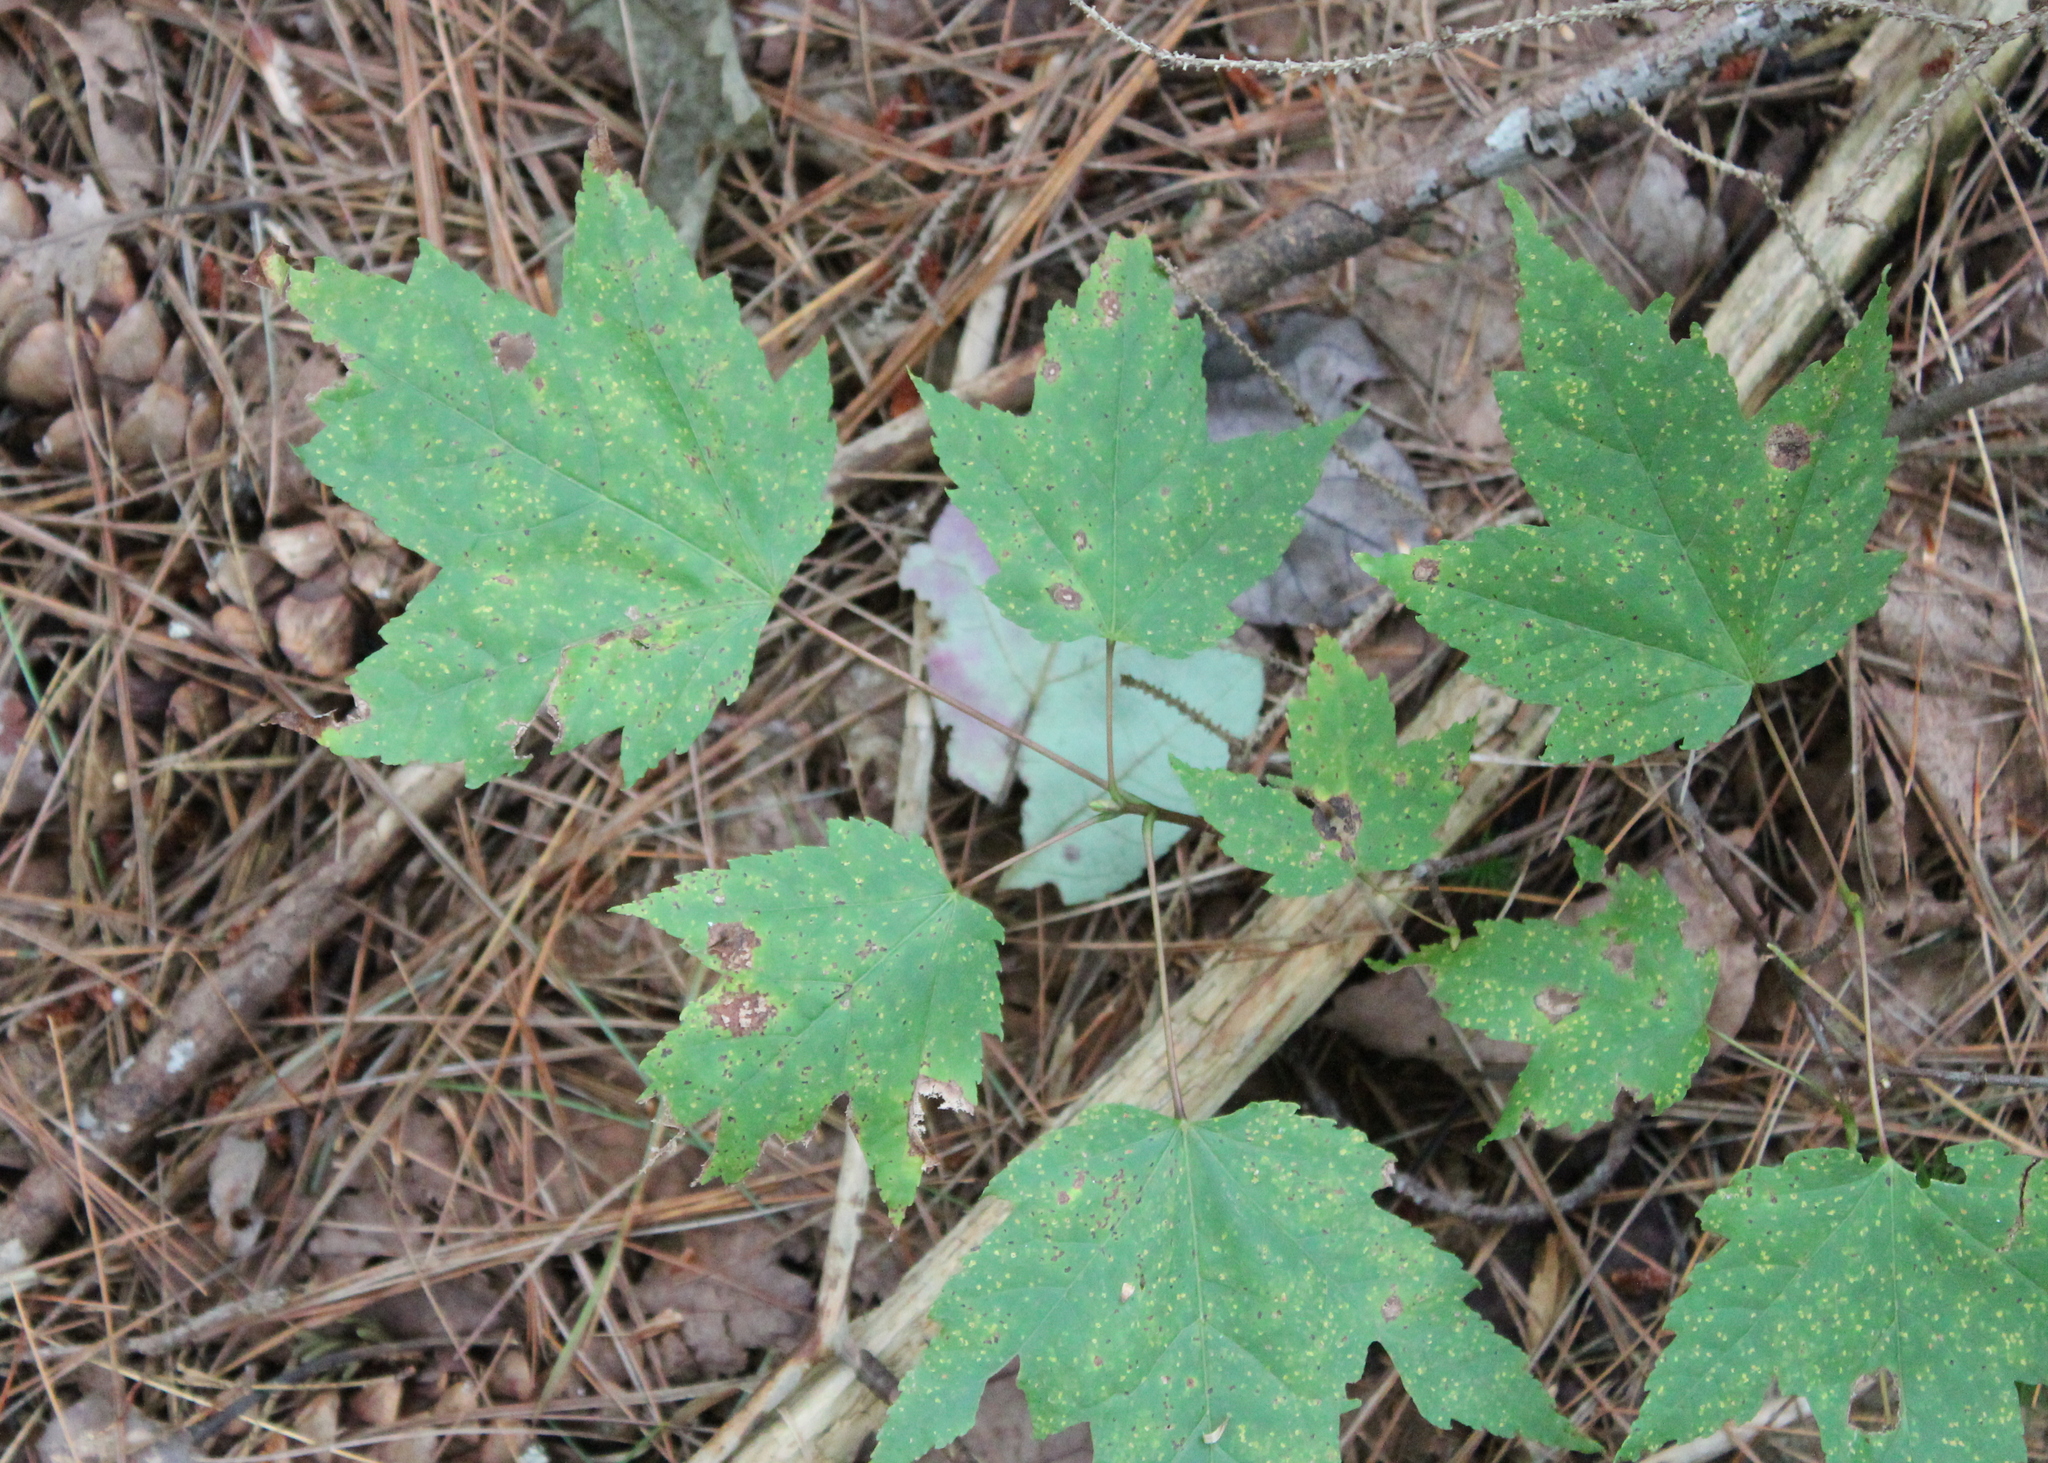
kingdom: Plantae
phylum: Tracheophyta
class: Magnoliopsida
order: Sapindales
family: Sapindaceae
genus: Acer
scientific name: Acer rubrum
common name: Red maple
